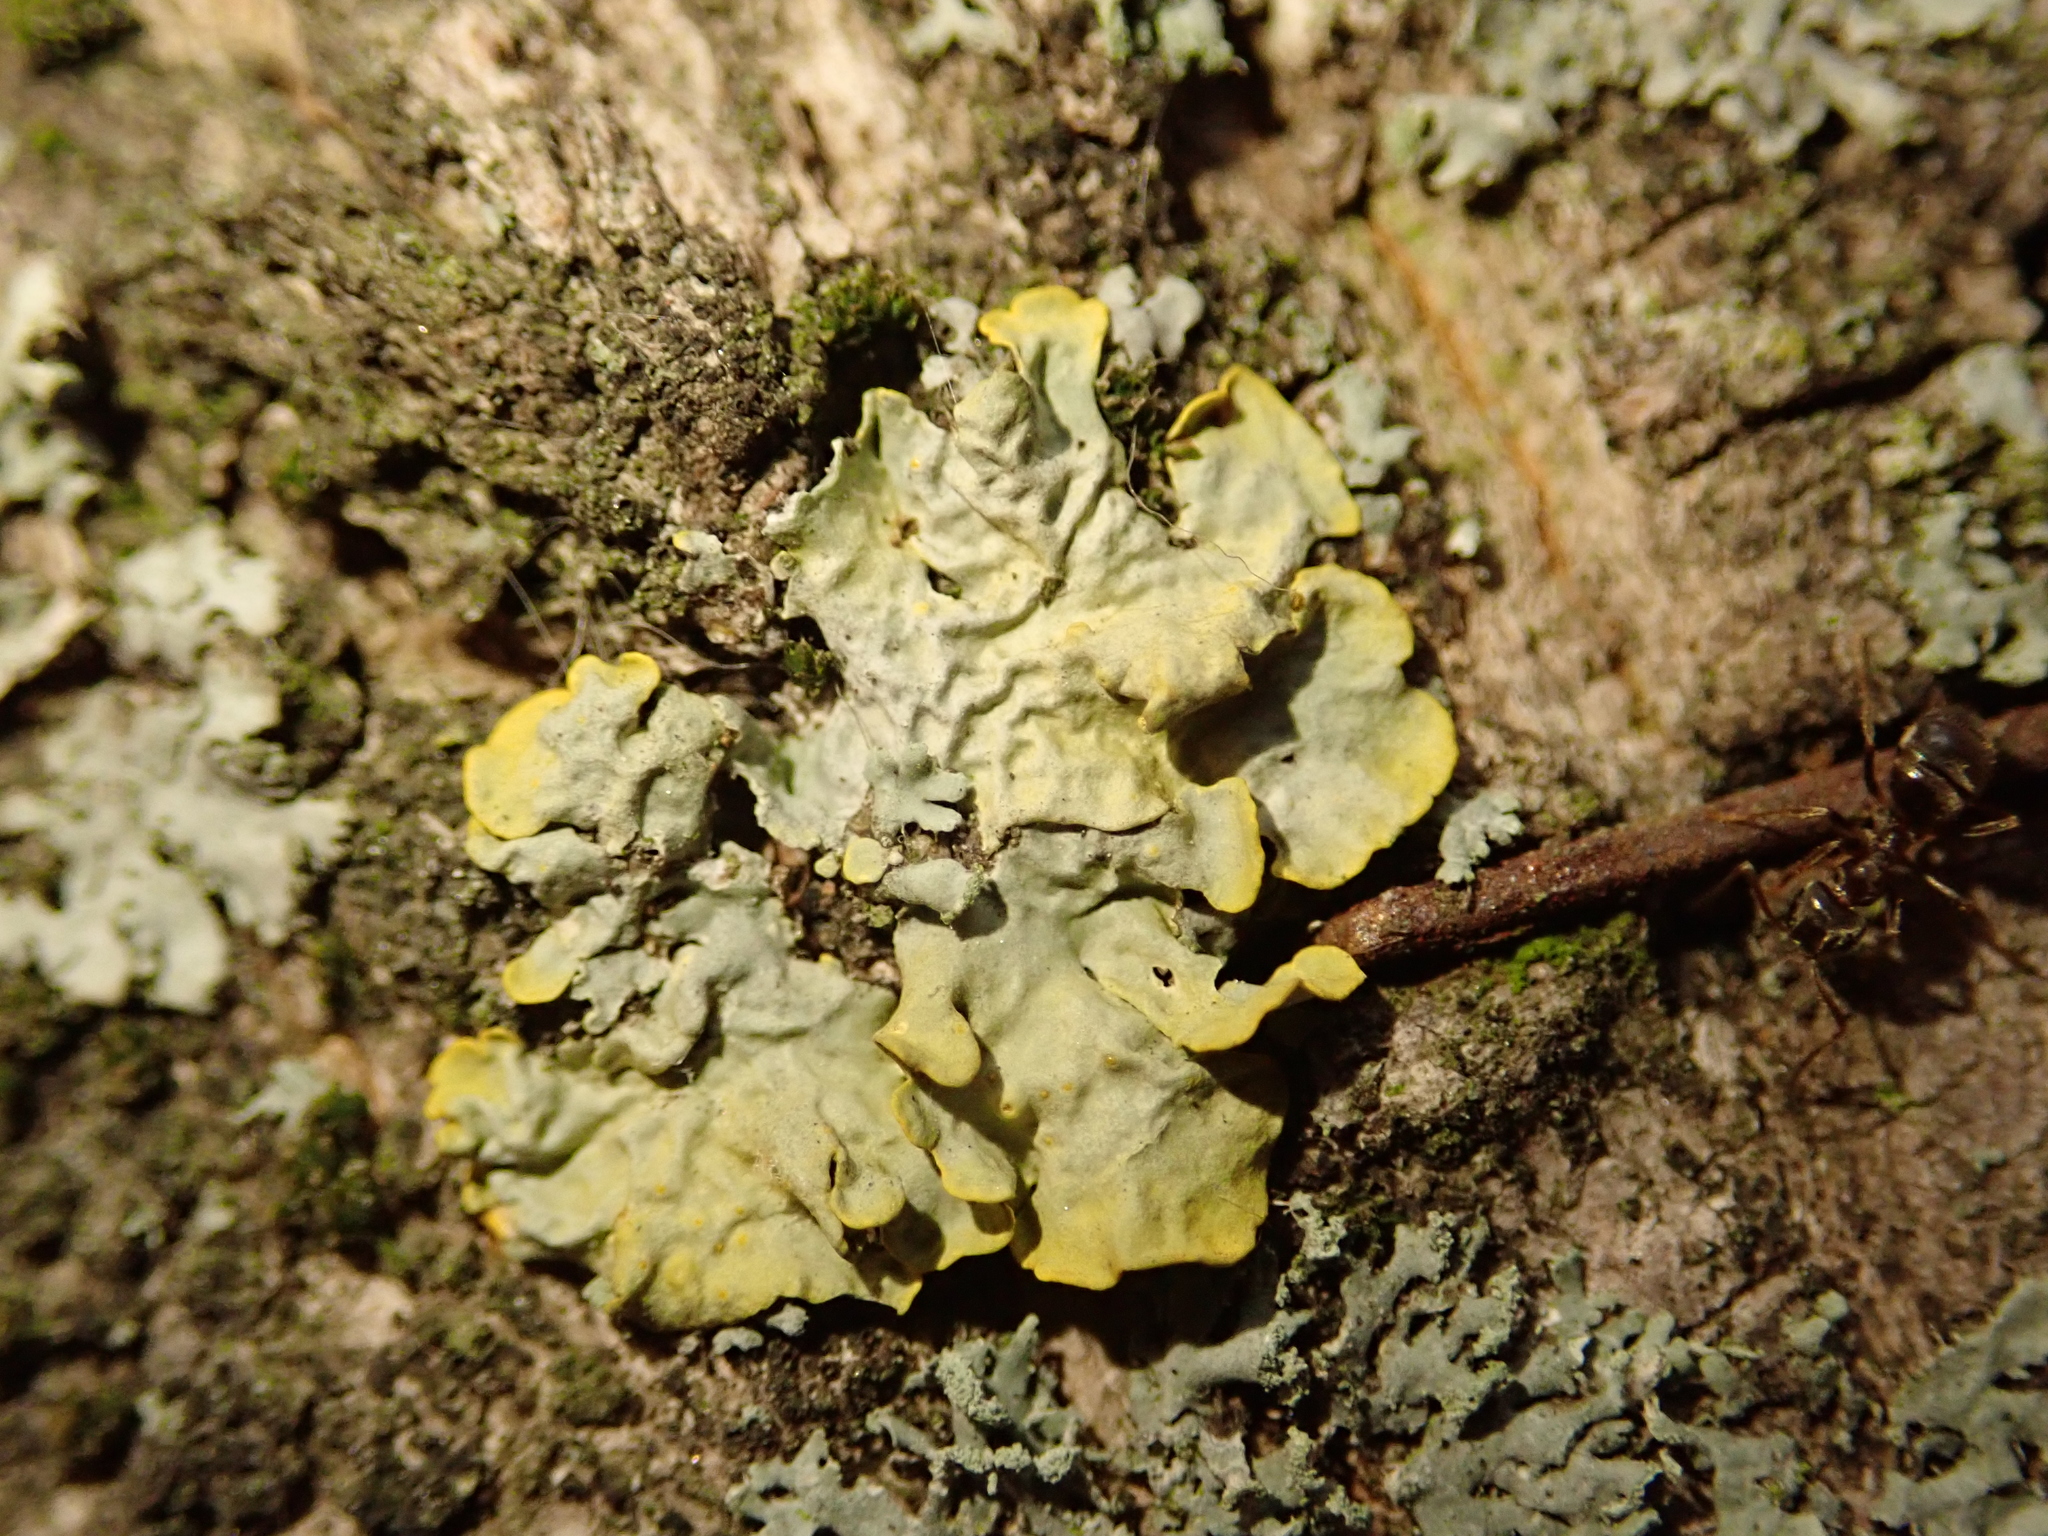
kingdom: Fungi
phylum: Ascomycota
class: Lecanoromycetes
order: Teloschistales
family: Teloschistaceae
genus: Xanthoria
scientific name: Xanthoria parietina
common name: Common orange lichen
